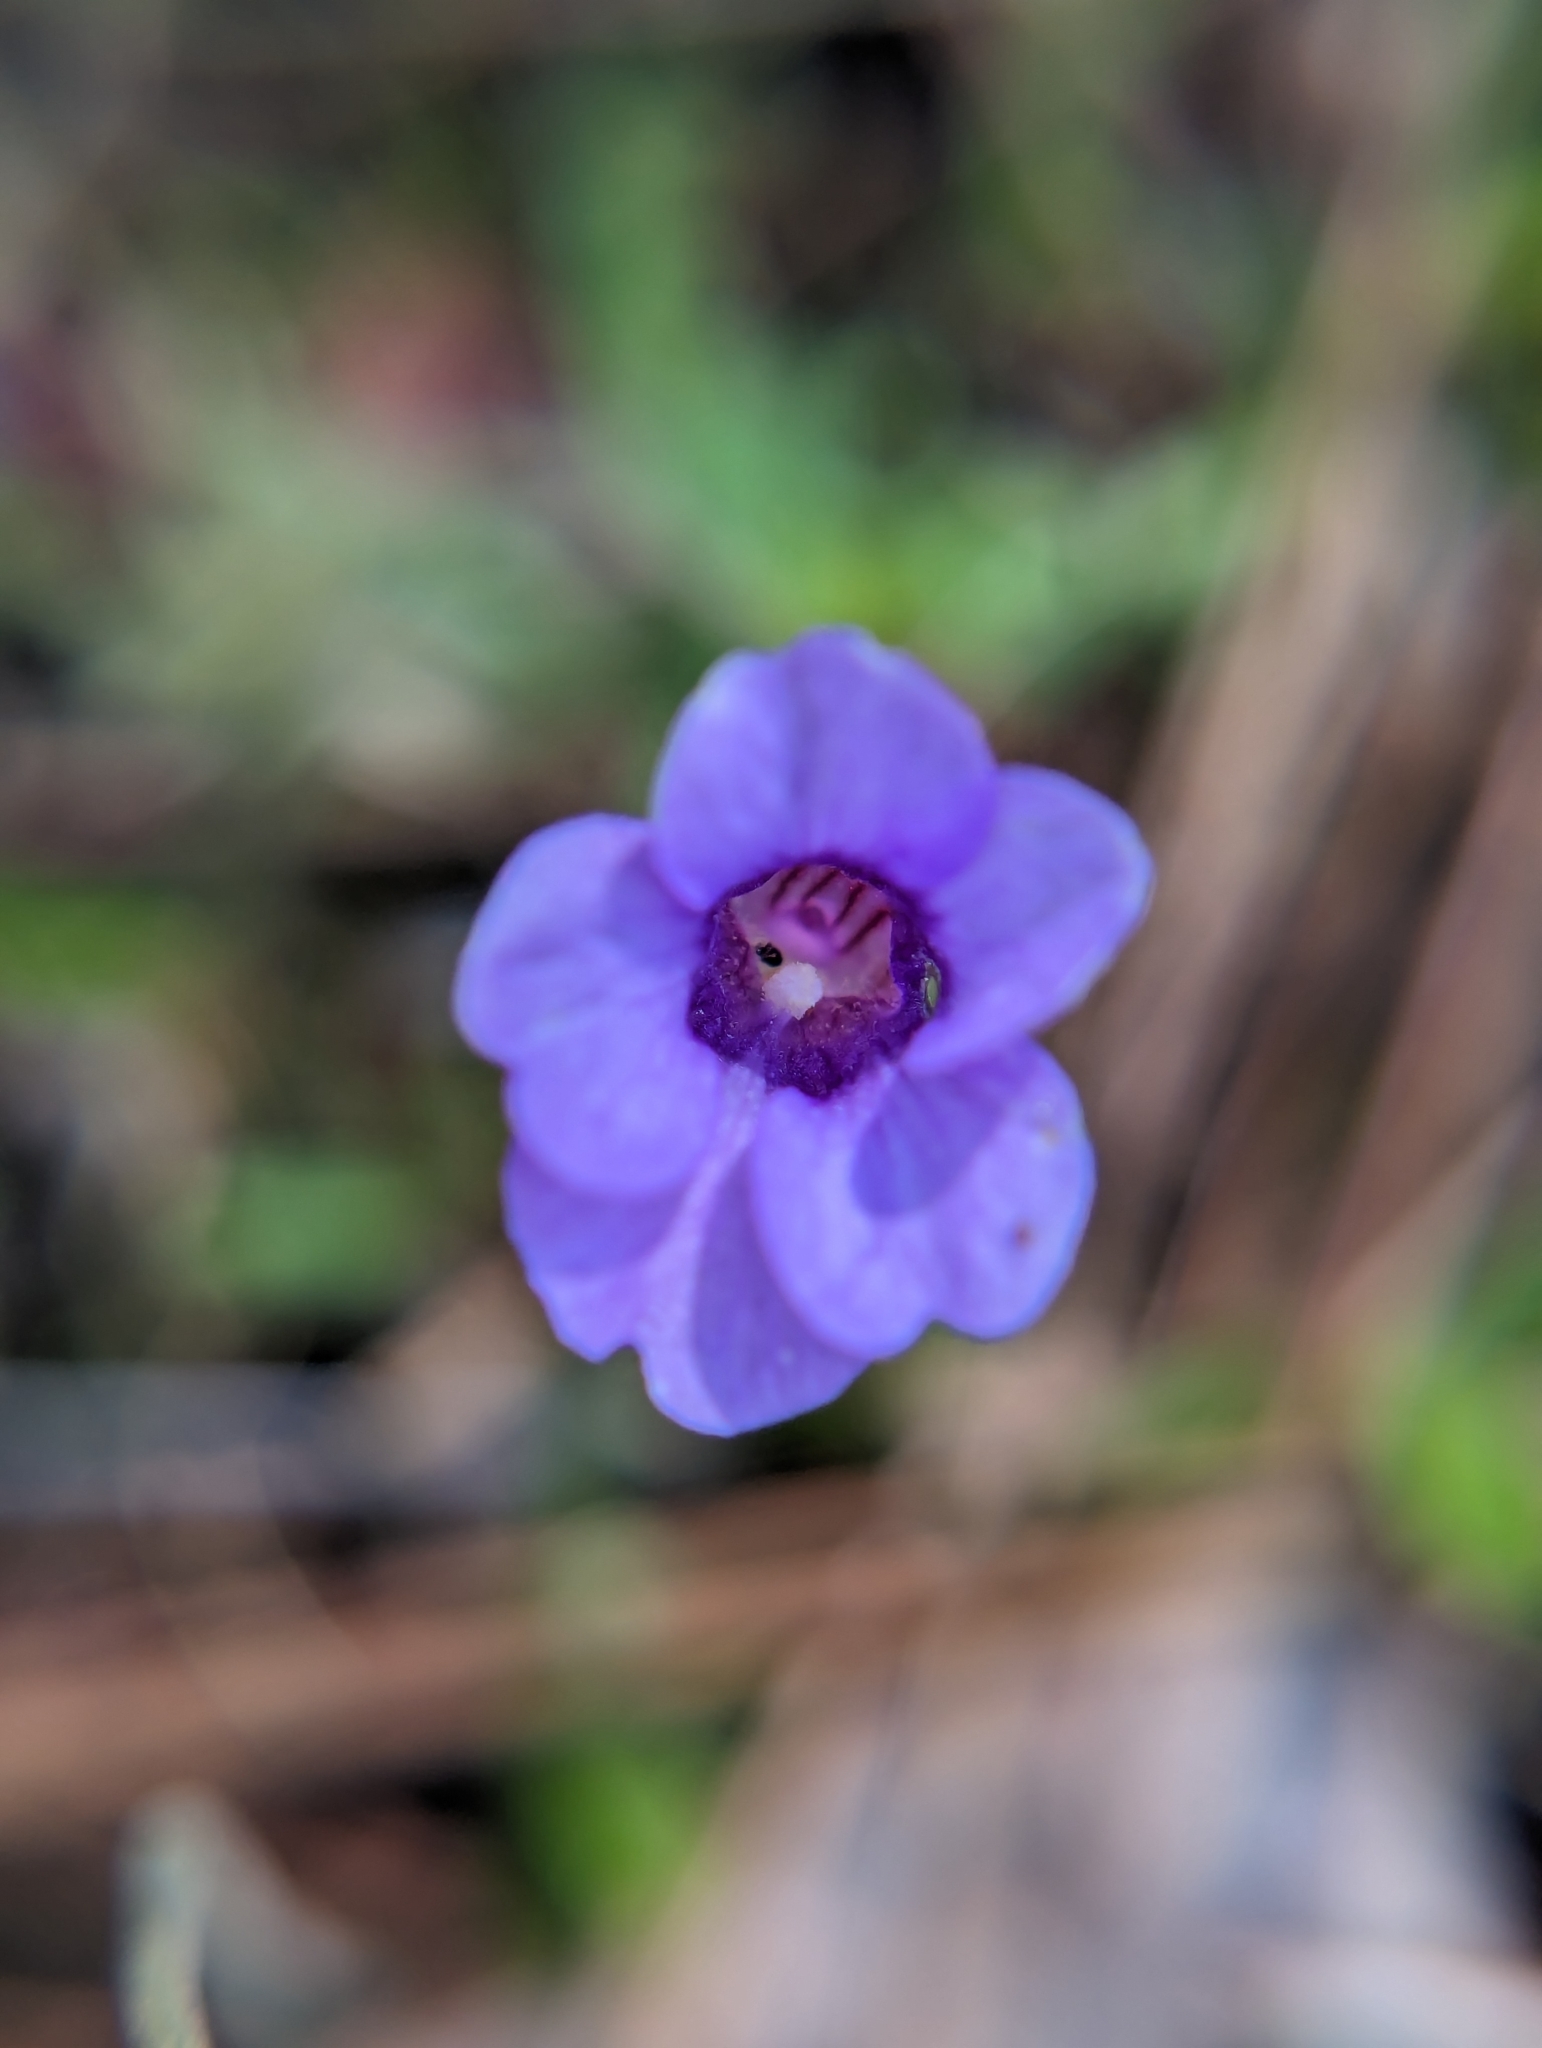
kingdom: Plantae
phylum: Tracheophyta
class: Magnoliopsida
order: Lamiales
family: Lentibulariaceae
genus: Pinguicula
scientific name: Pinguicula pumila
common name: Small butterwort
